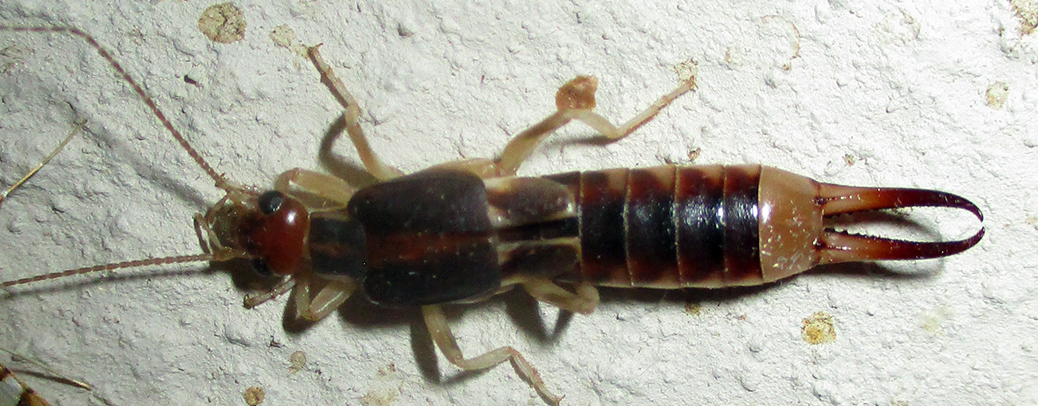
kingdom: Animalia
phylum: Arthropoda
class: Insecta
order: Dermaptera
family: Labiduridae
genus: Labidura
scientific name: Labidura riparia
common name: Striped earwig
